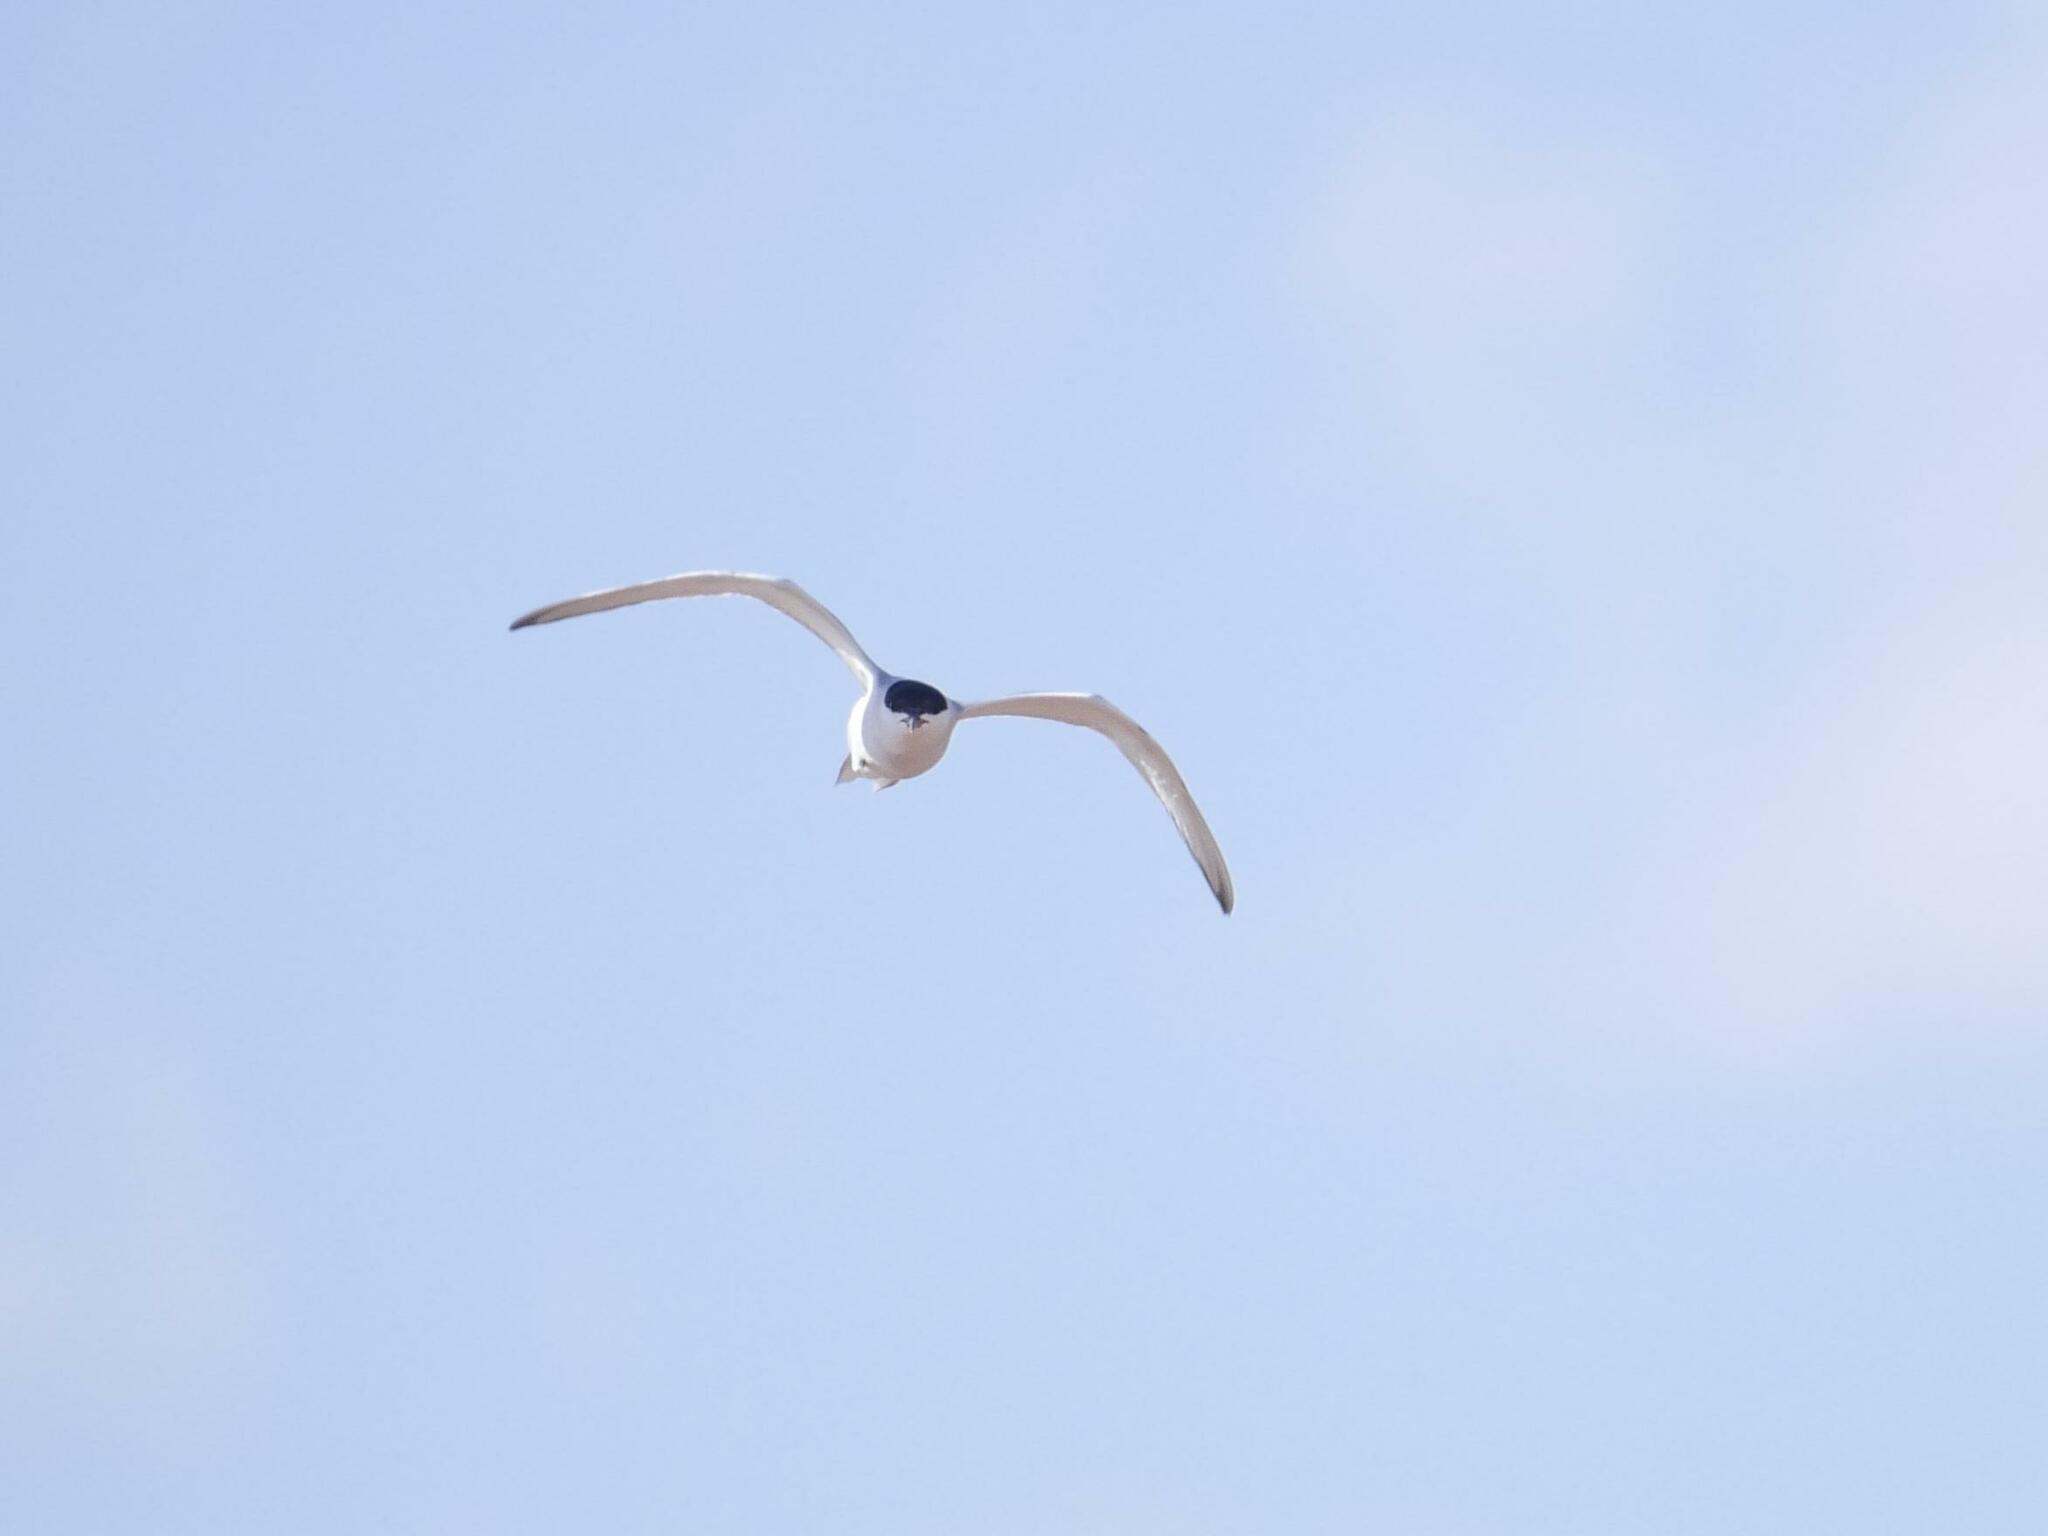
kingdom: Animalia
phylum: Chordata
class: Aves
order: Charadriiformes
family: Laridae
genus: Sterna
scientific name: Sterna hirundo
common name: Common tern
